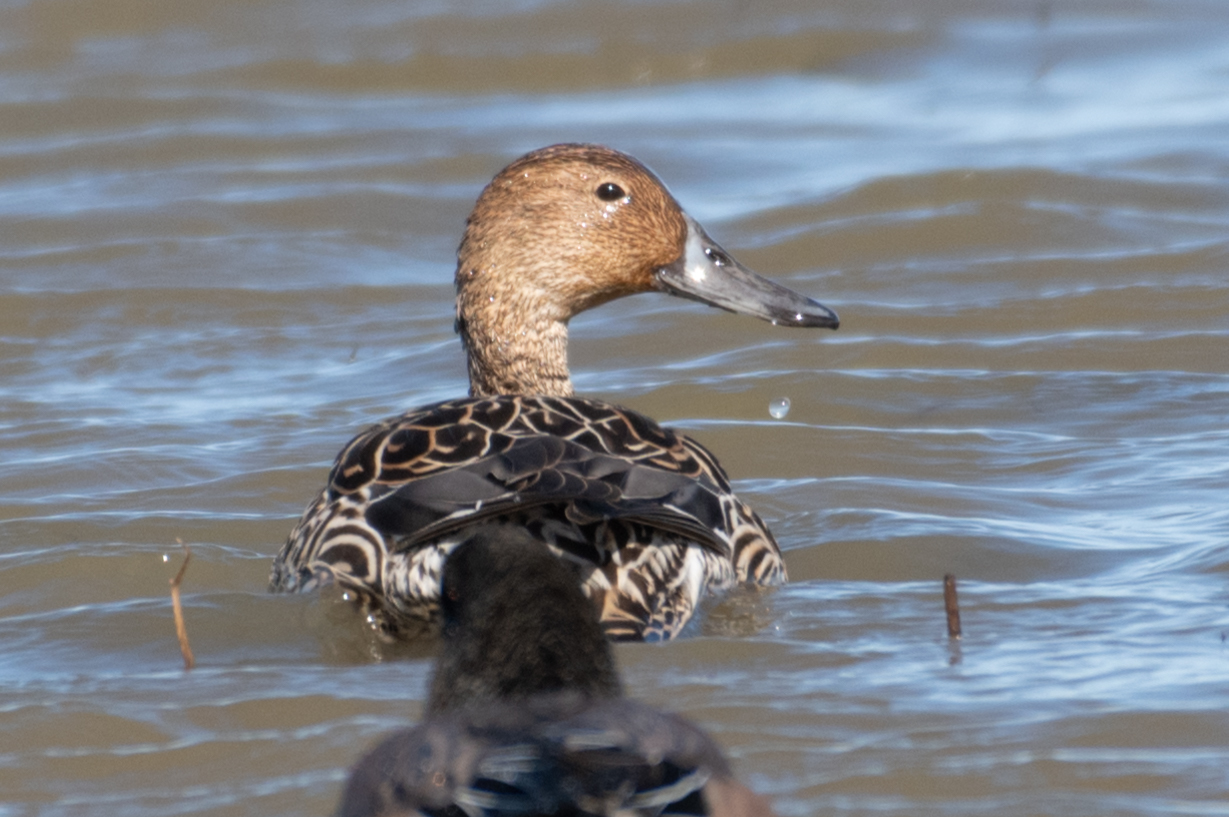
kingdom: Animalia
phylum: Chordata
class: Aves
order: Anseriformes
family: Anatidae
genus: Anas
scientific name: Anas acuta
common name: Northern pintail
